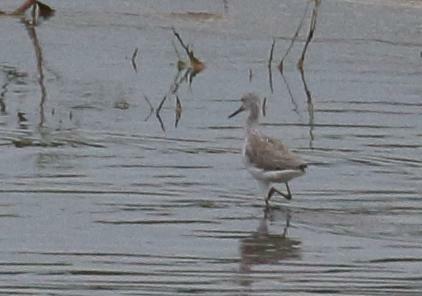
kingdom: Animalia
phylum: Chordata
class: Aves
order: Charadriiformes
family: Scolopacidae
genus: Tringa
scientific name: Tringa nebularia
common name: Common greenshank
